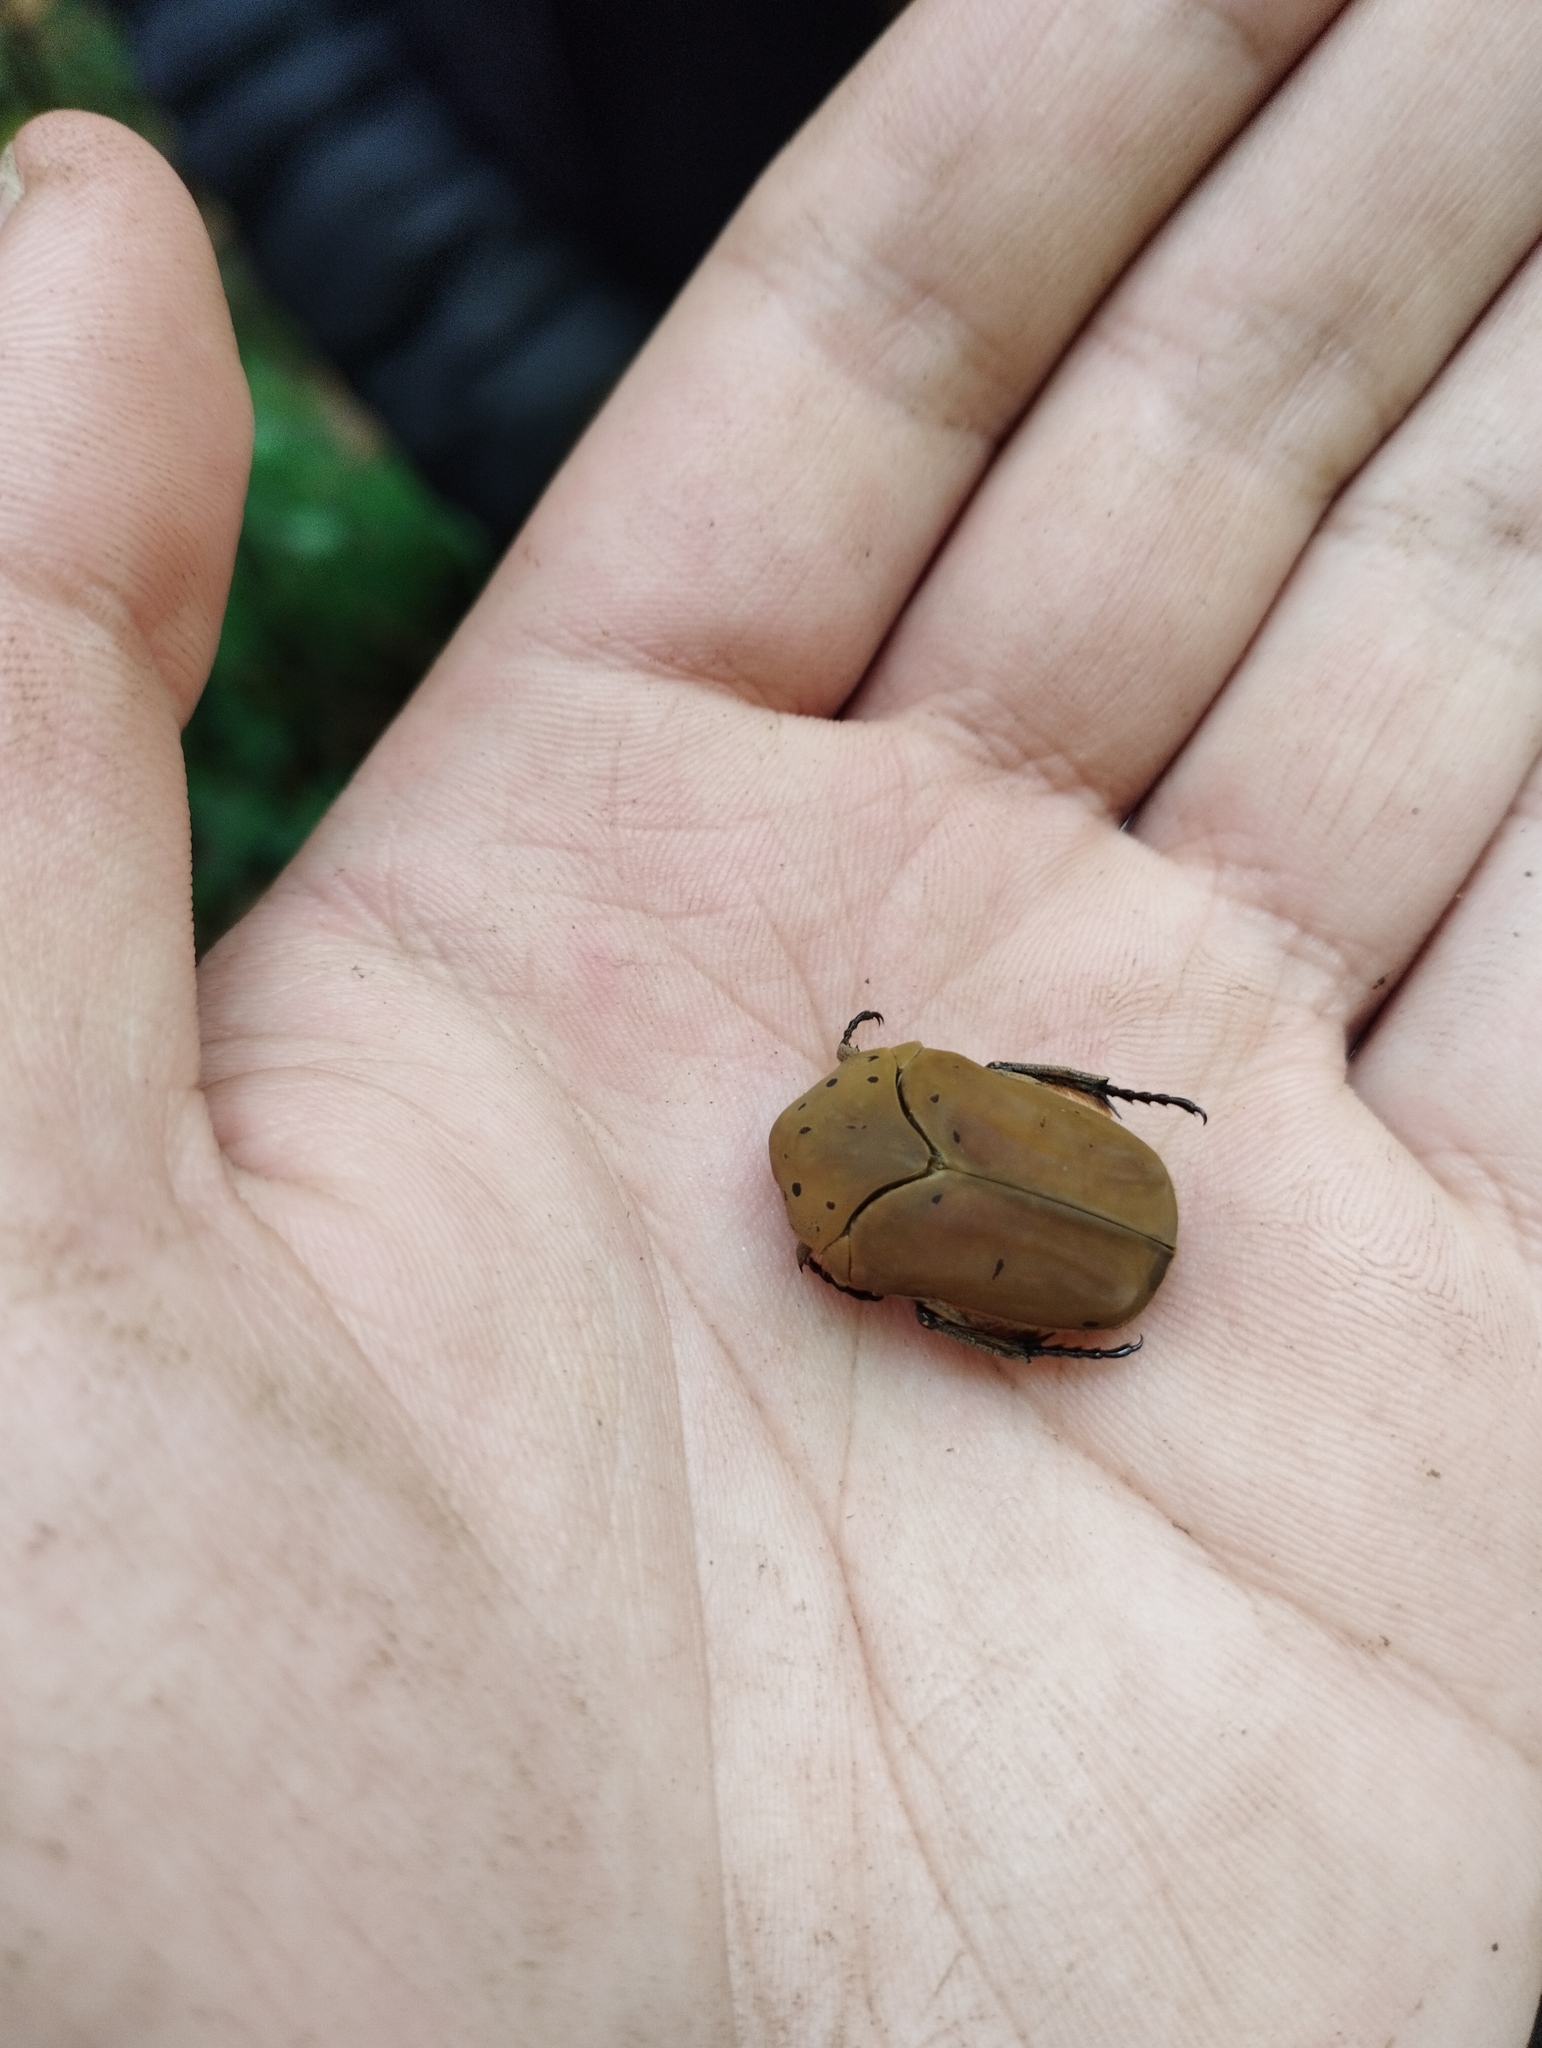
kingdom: Animalia
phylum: Arthropoda
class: Insecta
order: Coleoptera
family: Scarabaeidae
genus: Gymnetis
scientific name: Gymnetis pantherina
